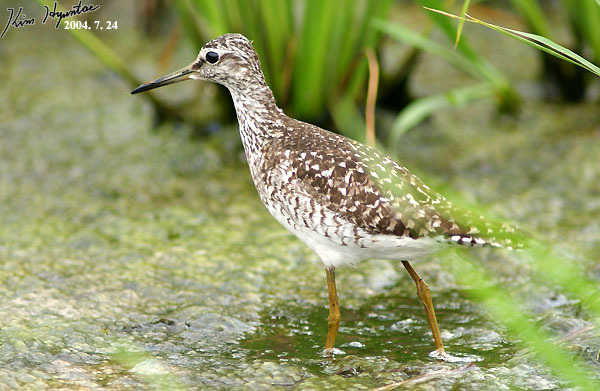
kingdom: Animalia
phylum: Chordata
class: Aves
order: Charadriiformes
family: Scolopacidae
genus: Tringa
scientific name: Tringa glareola
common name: Wood sandpiper
